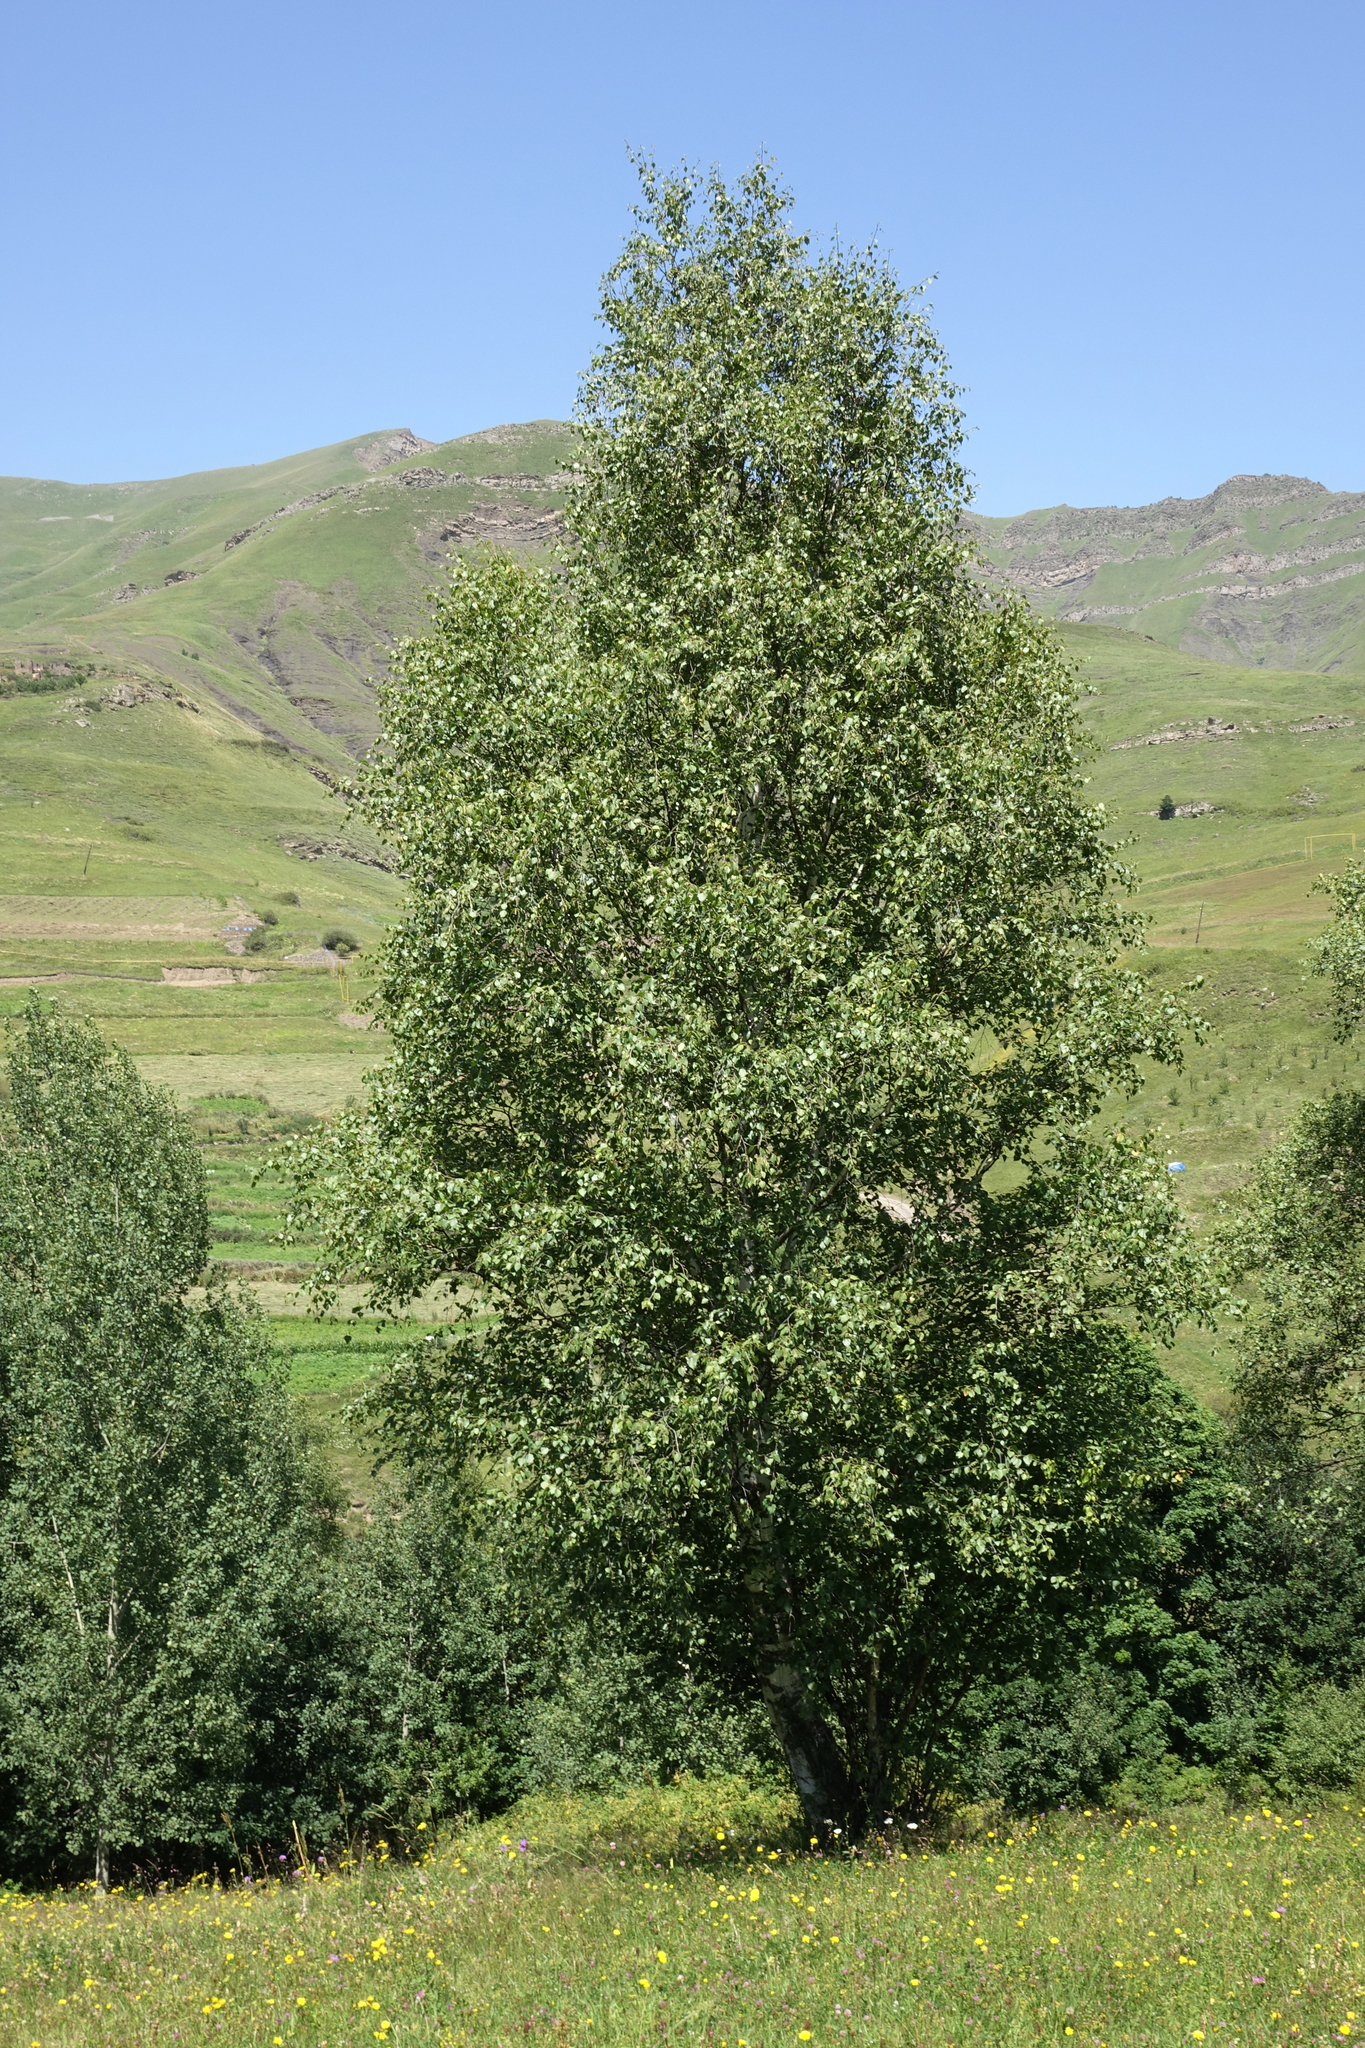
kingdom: Plantae
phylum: Tracheophyta
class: Magnoliopsida
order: Fagales
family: Betulaceae
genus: Betula
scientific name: Betula pendula
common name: Silver birch
